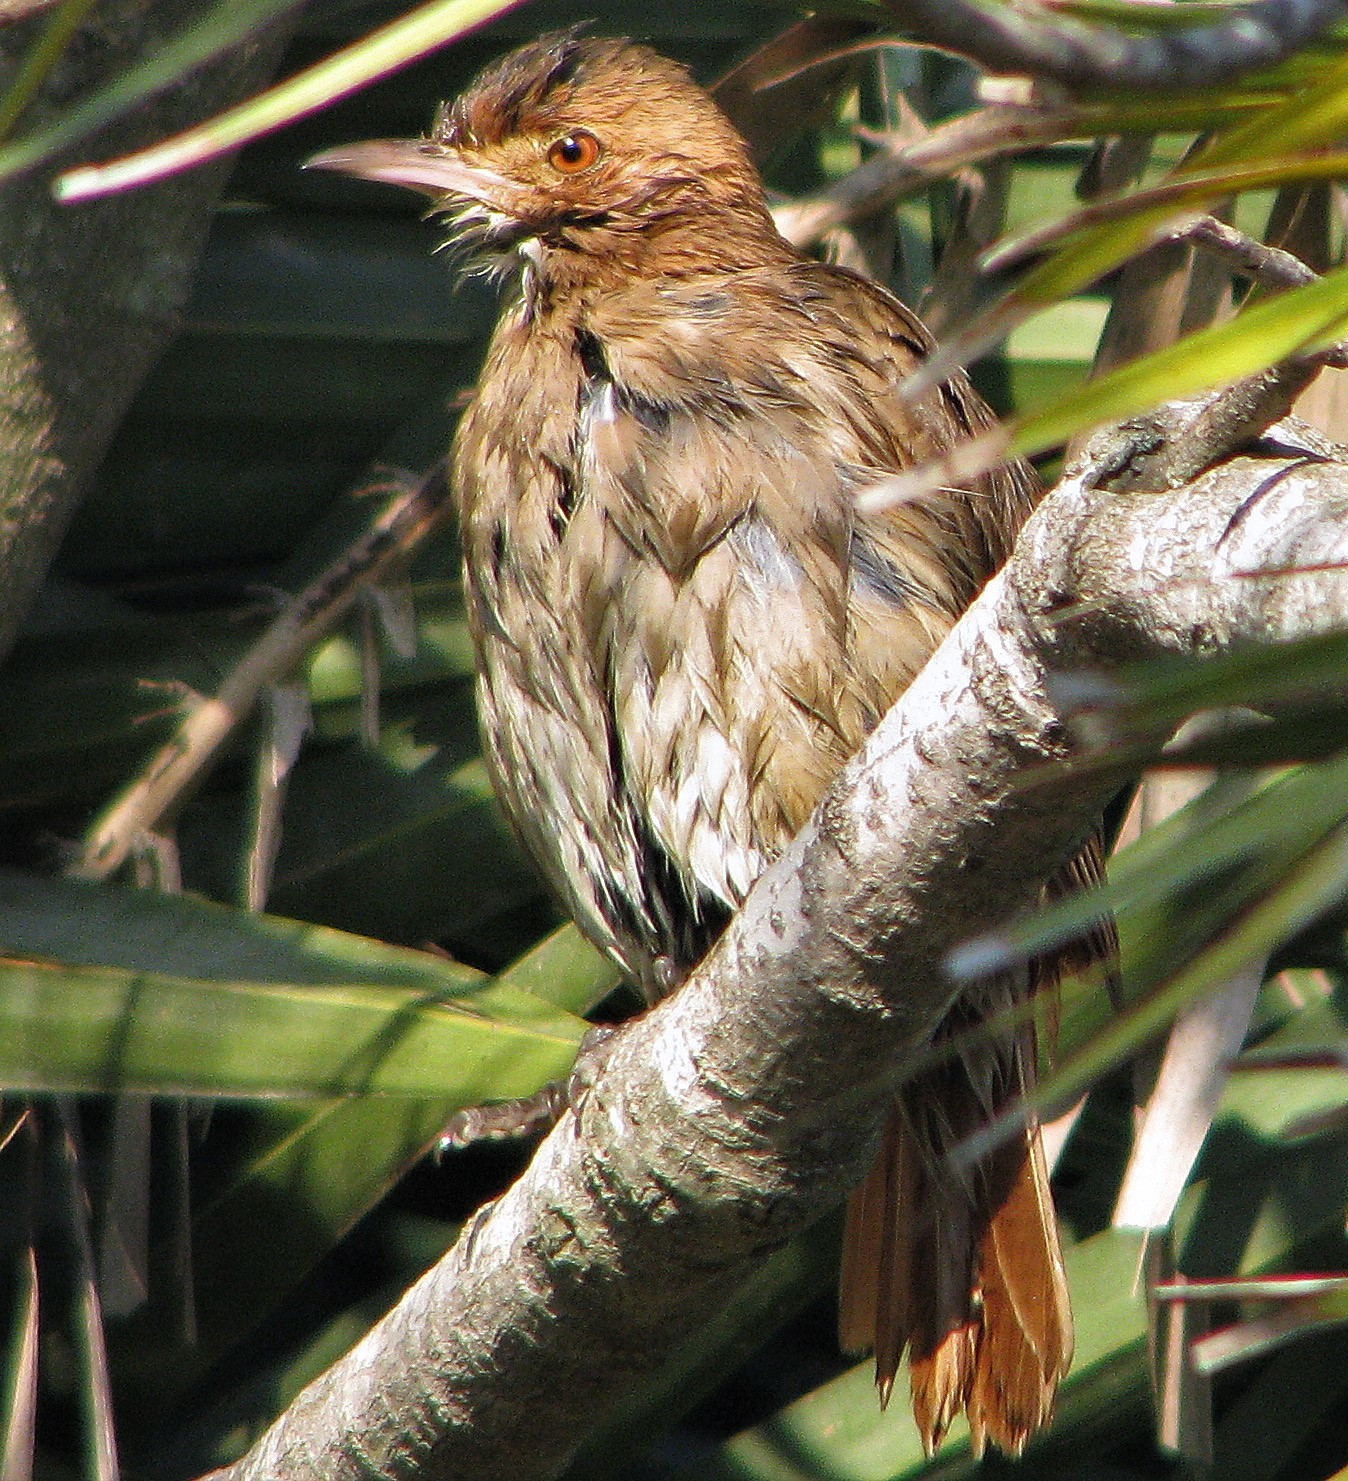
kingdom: Animalia
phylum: Chordata
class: Aves
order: Passeriformes
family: Furnariidae
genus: Furnarius
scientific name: Furnarius rufus
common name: Rufous hornero
